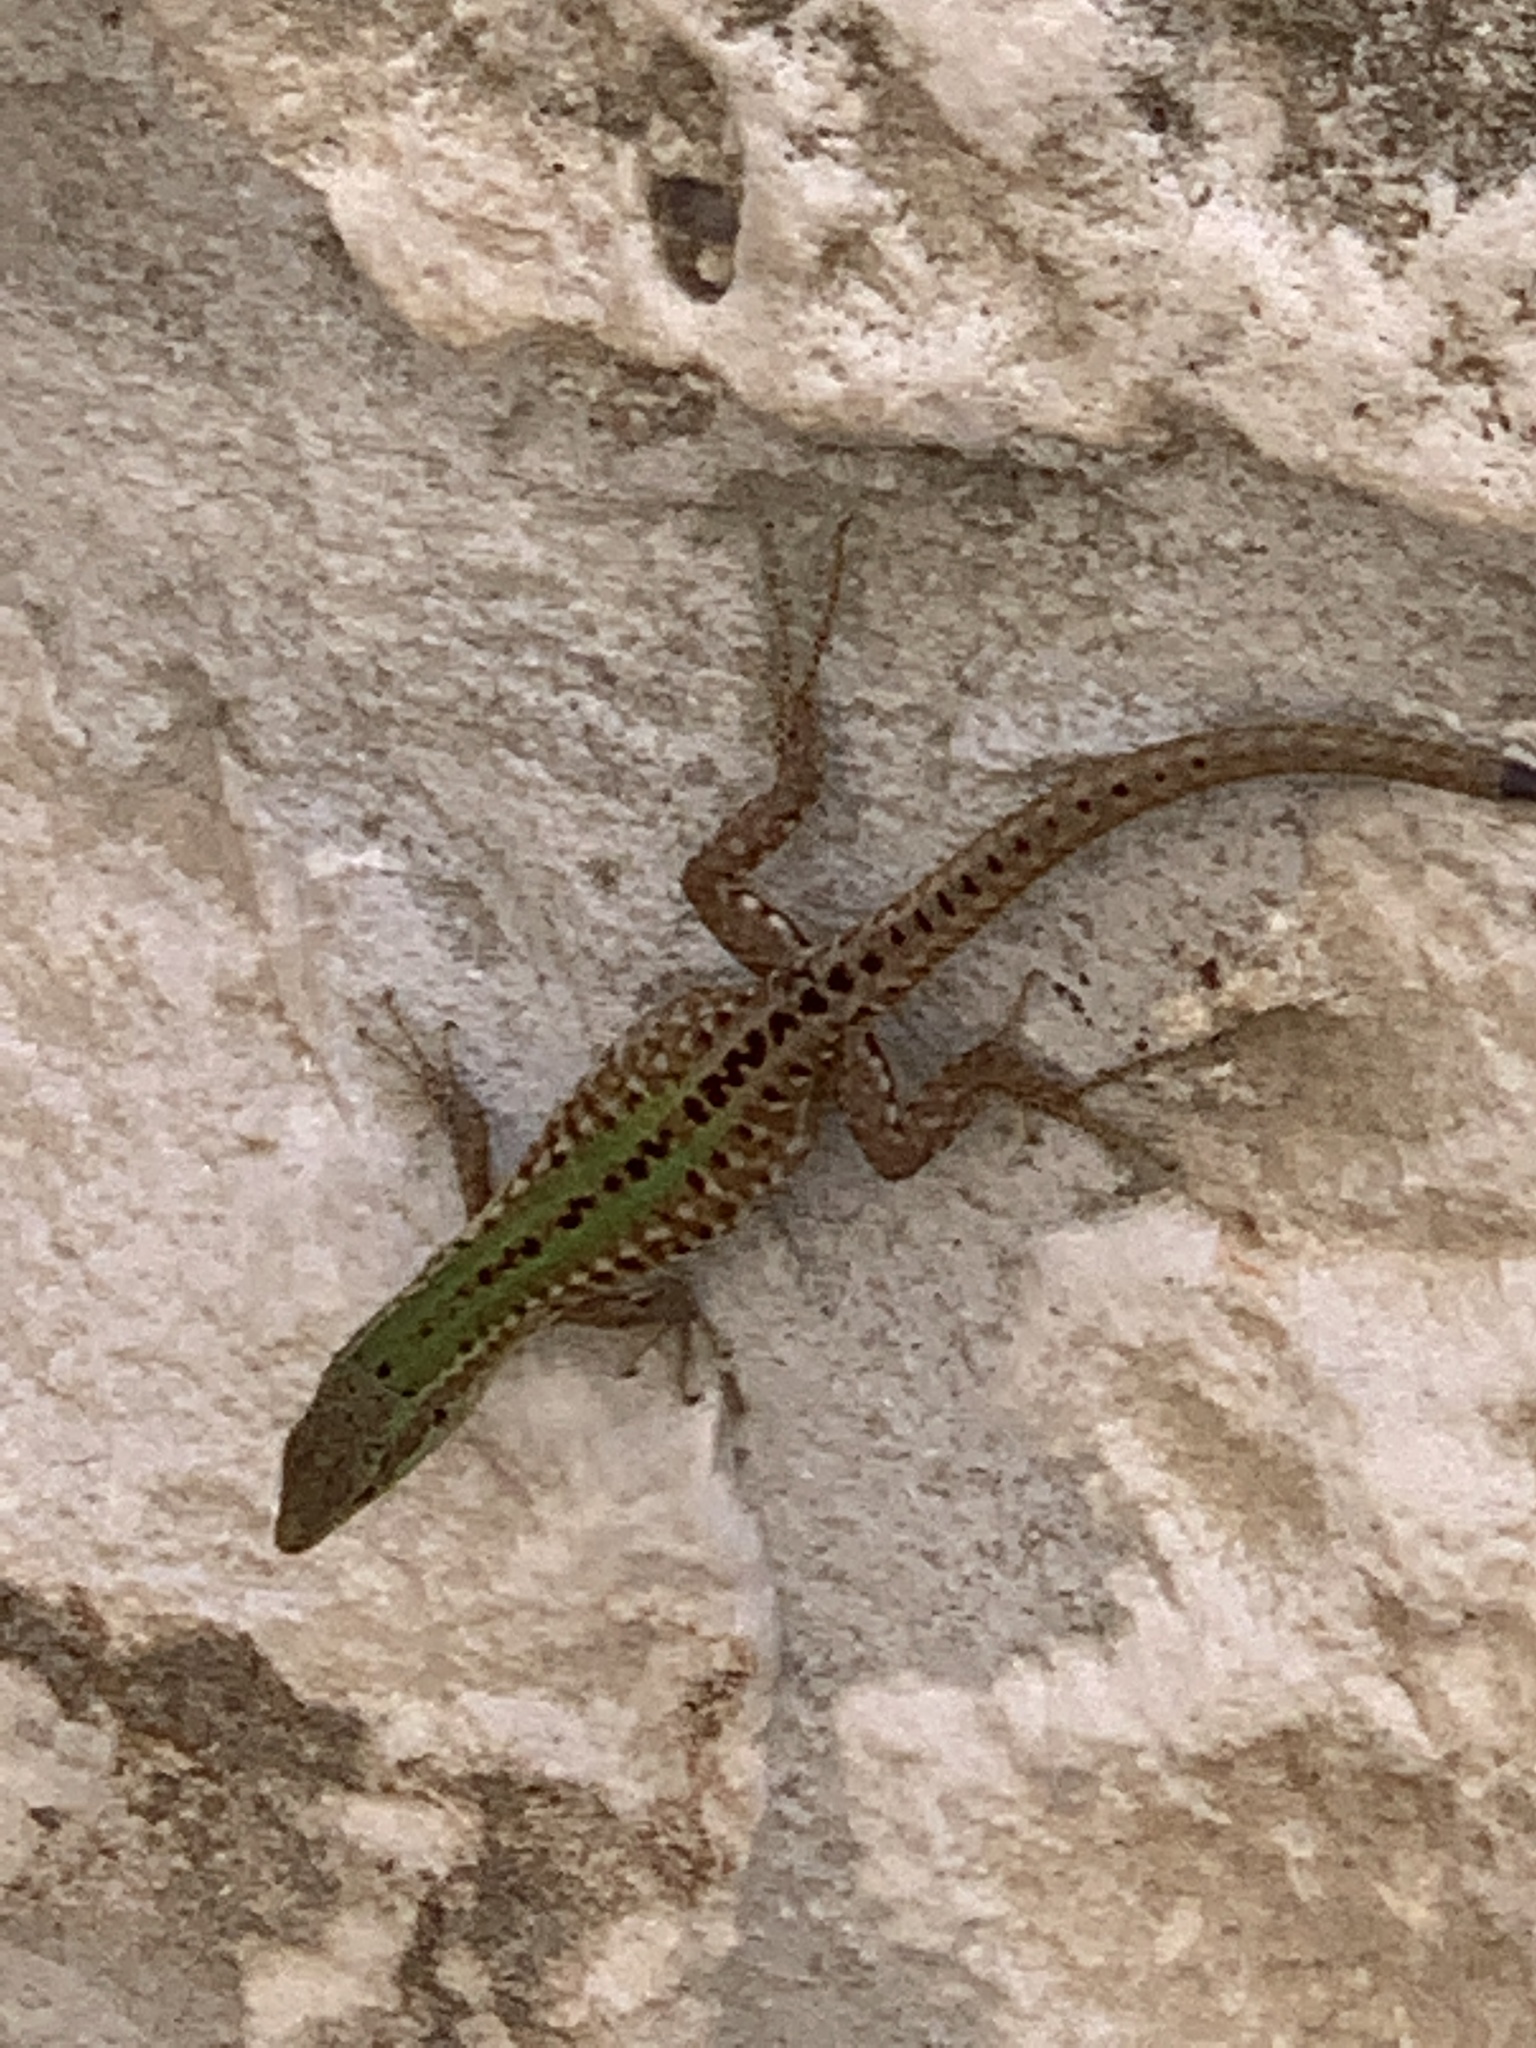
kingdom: Animalia
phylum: Chordata
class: Squamata
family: Lacertidae
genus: Podarcis
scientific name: Podarcis siculus
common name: Italian wall lizard
